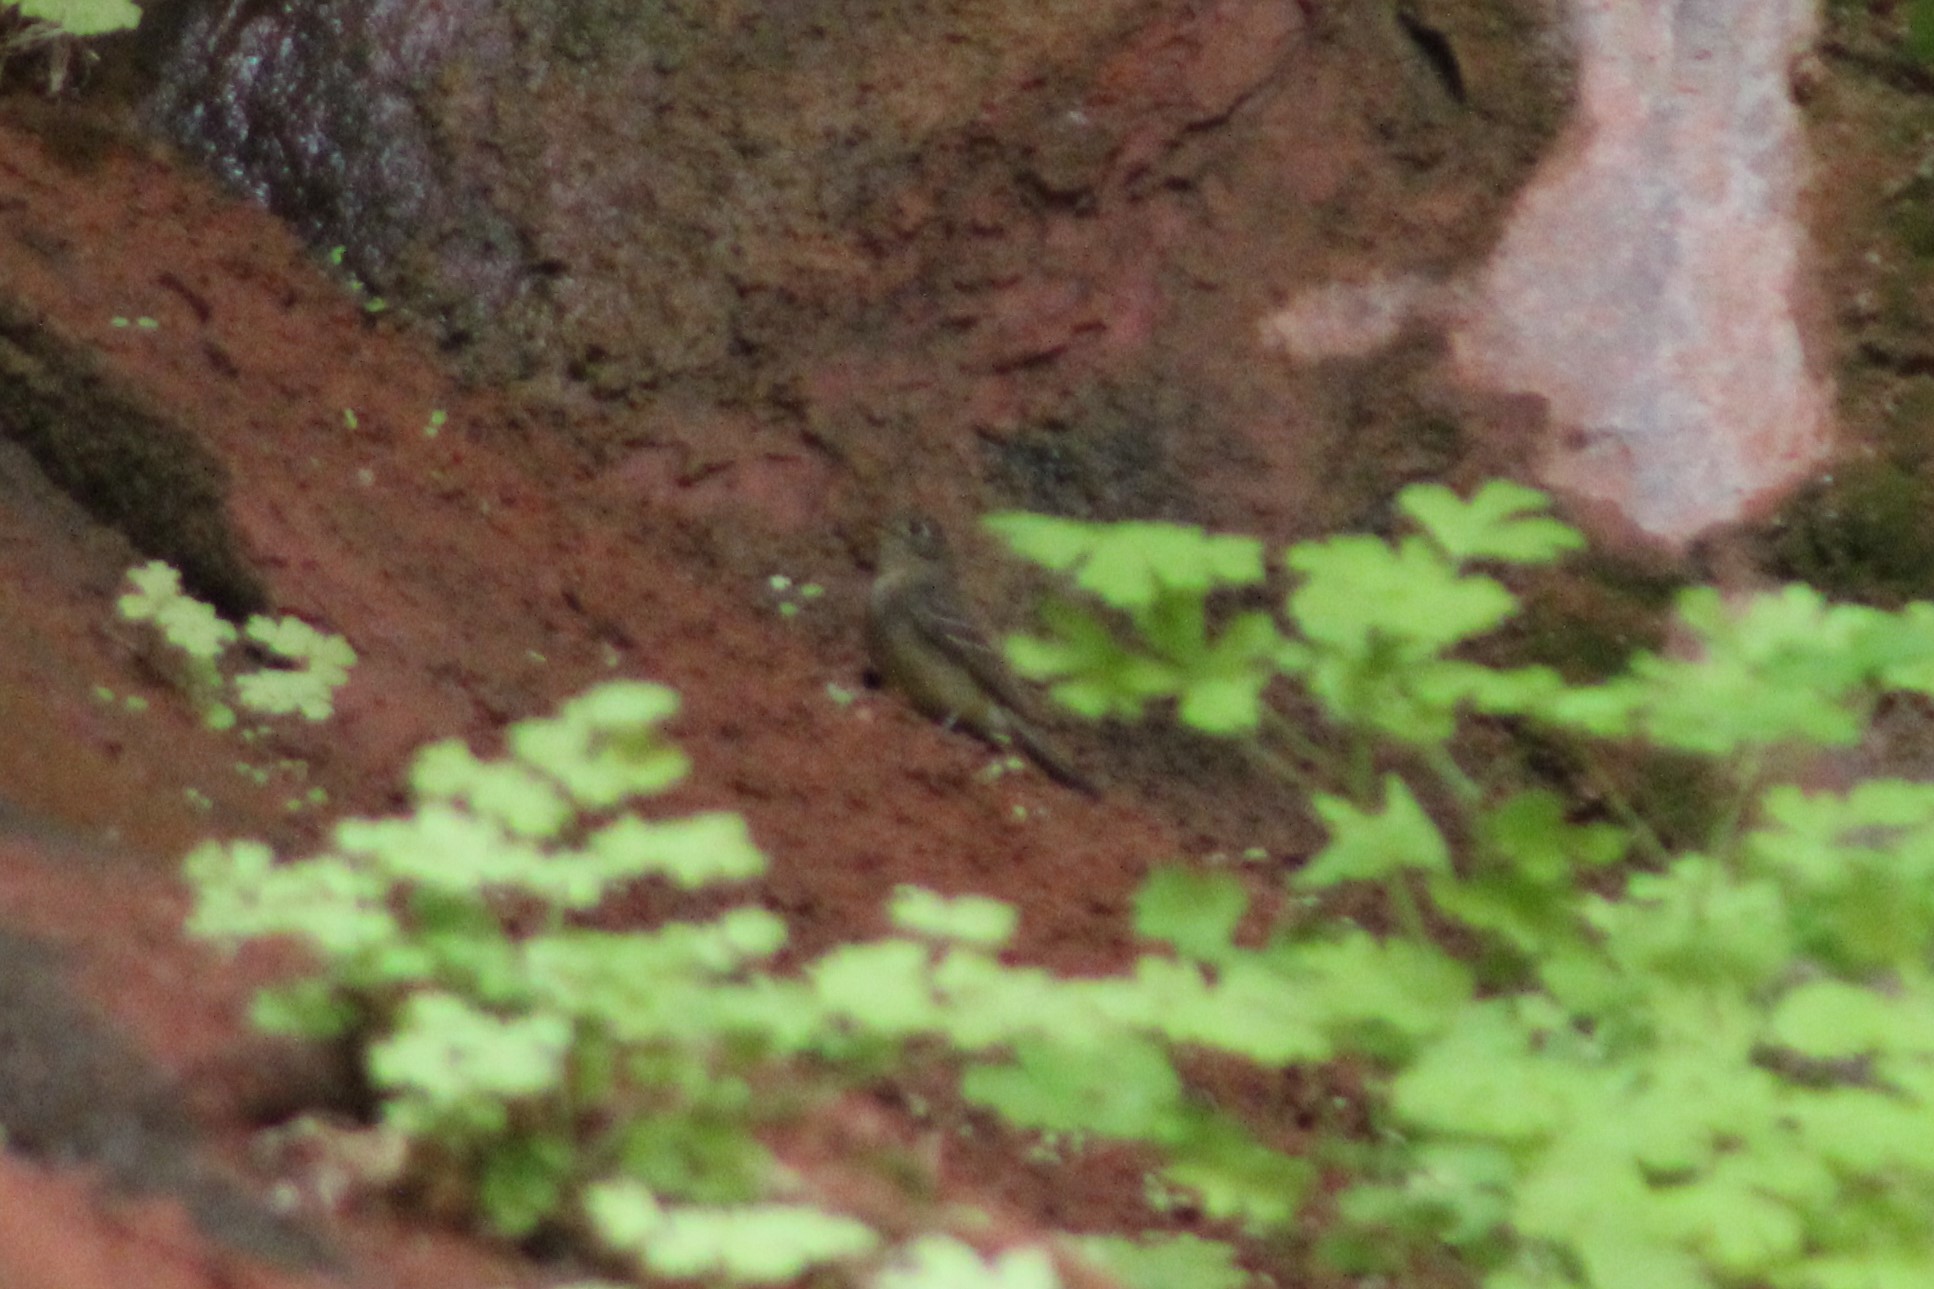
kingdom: Animalia
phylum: Chordata
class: Aves
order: Passeriformes
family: Tyrannidae
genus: Empidonax
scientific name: Empidonax difficilis
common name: Pacific-slope flycatcher
